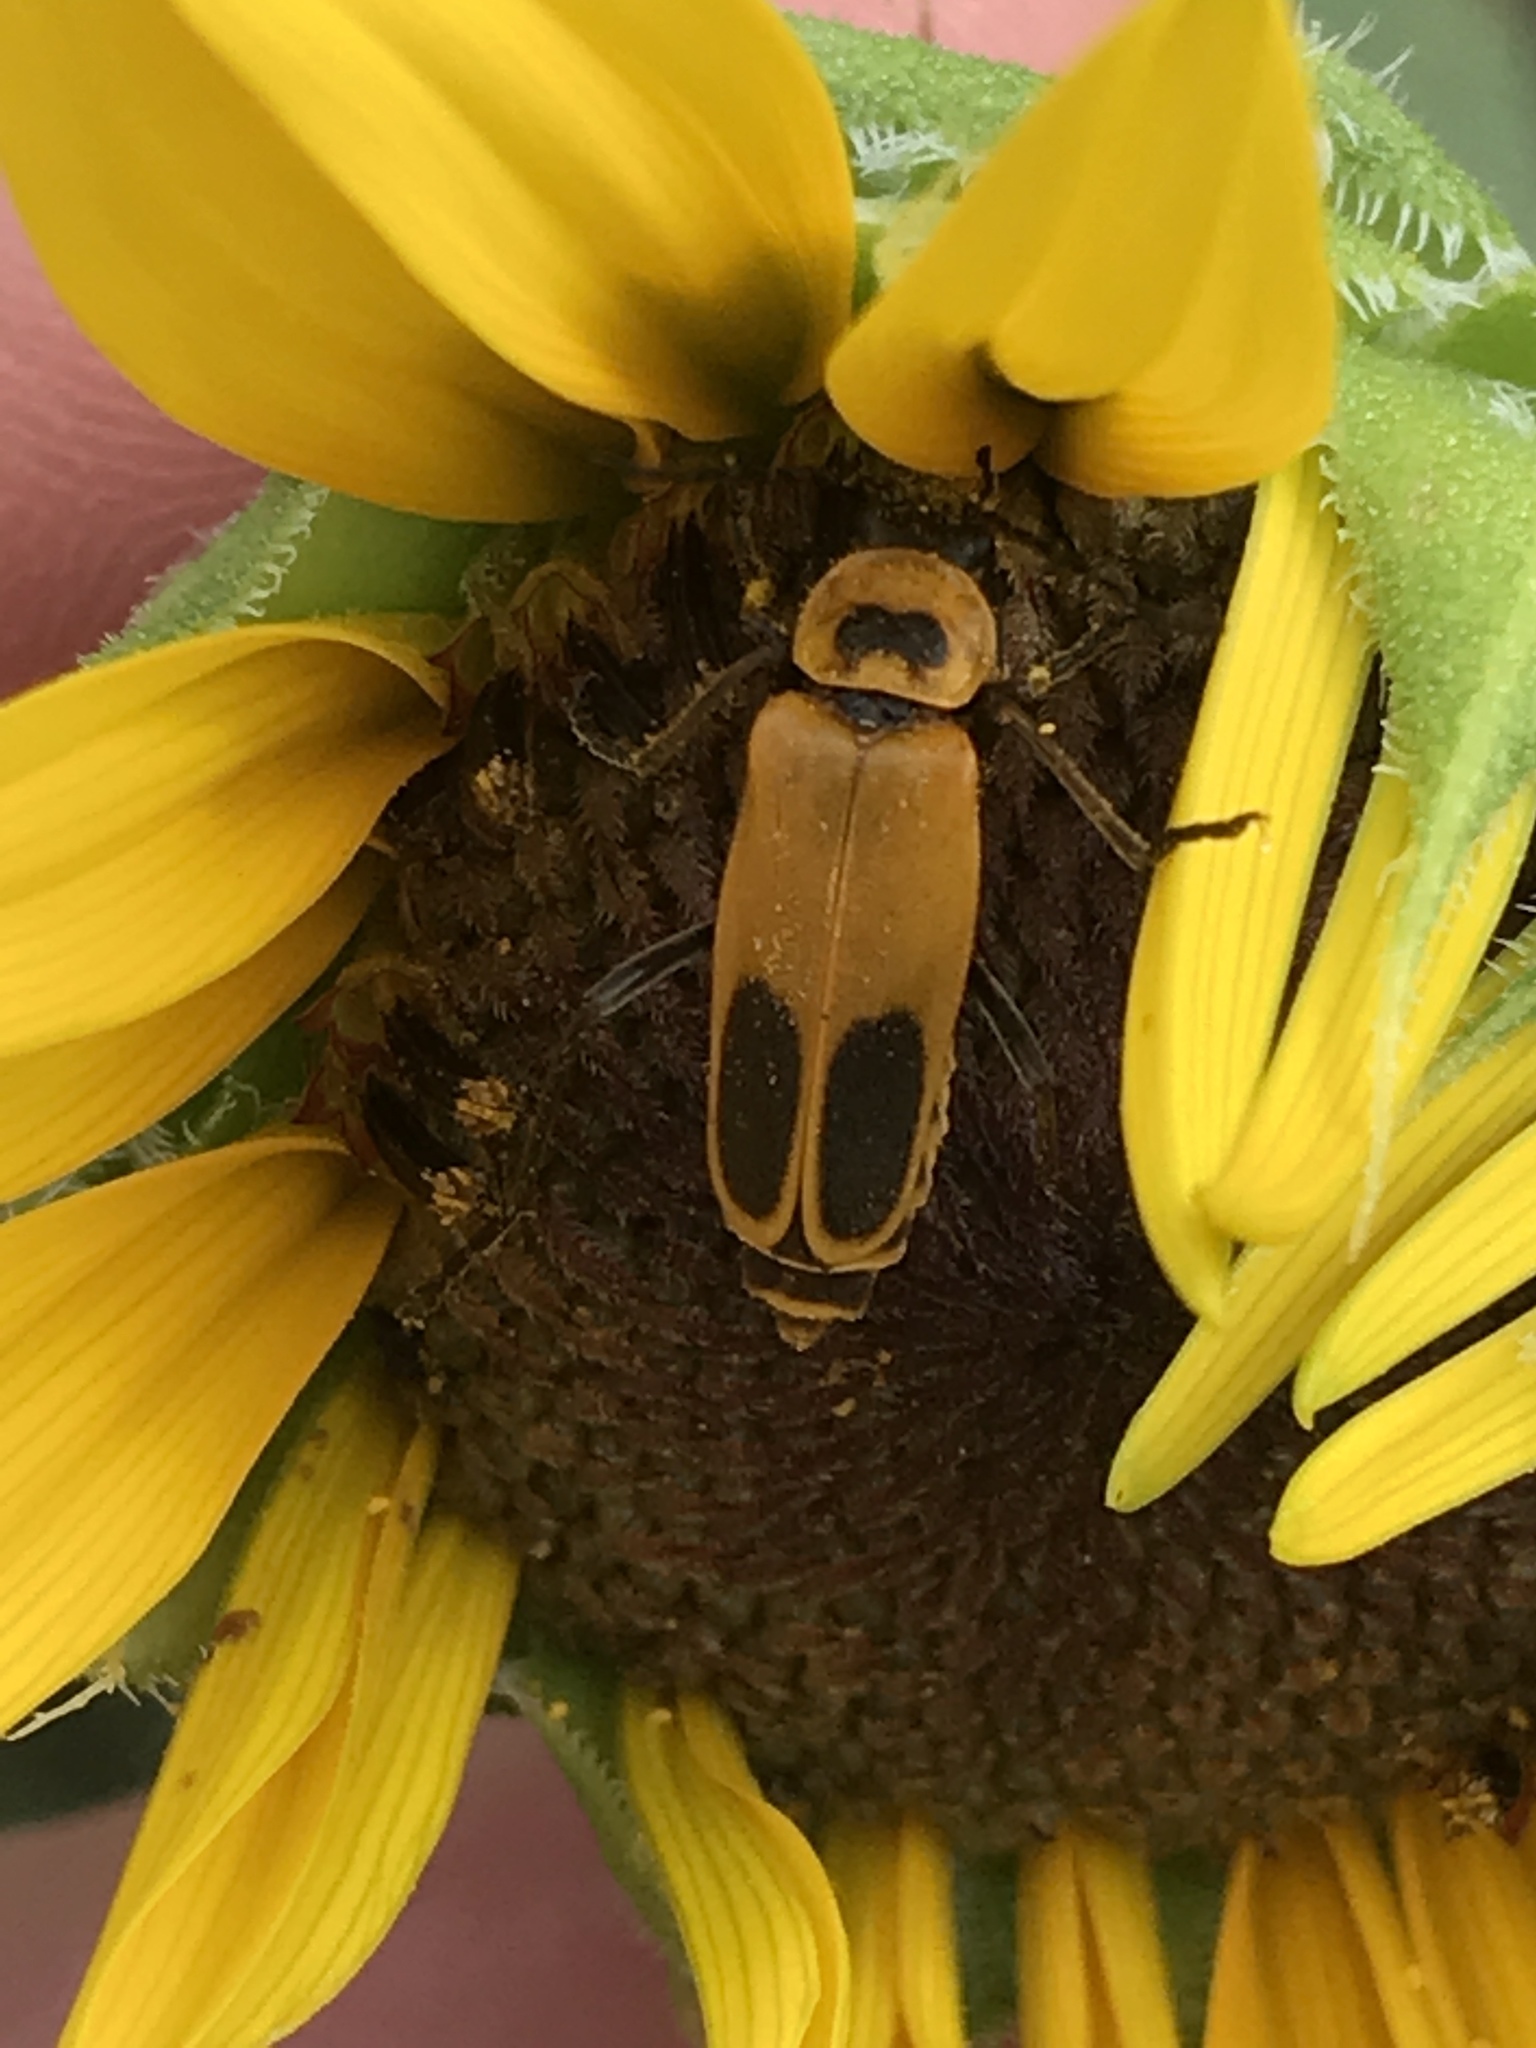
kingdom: Animalia
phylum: Arthropoda
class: Insecta
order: Coleoptera
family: Cantharidae
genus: Chauliognathus
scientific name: Chauliognathus pensylvanicus
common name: Goldenrod soldier beetle
